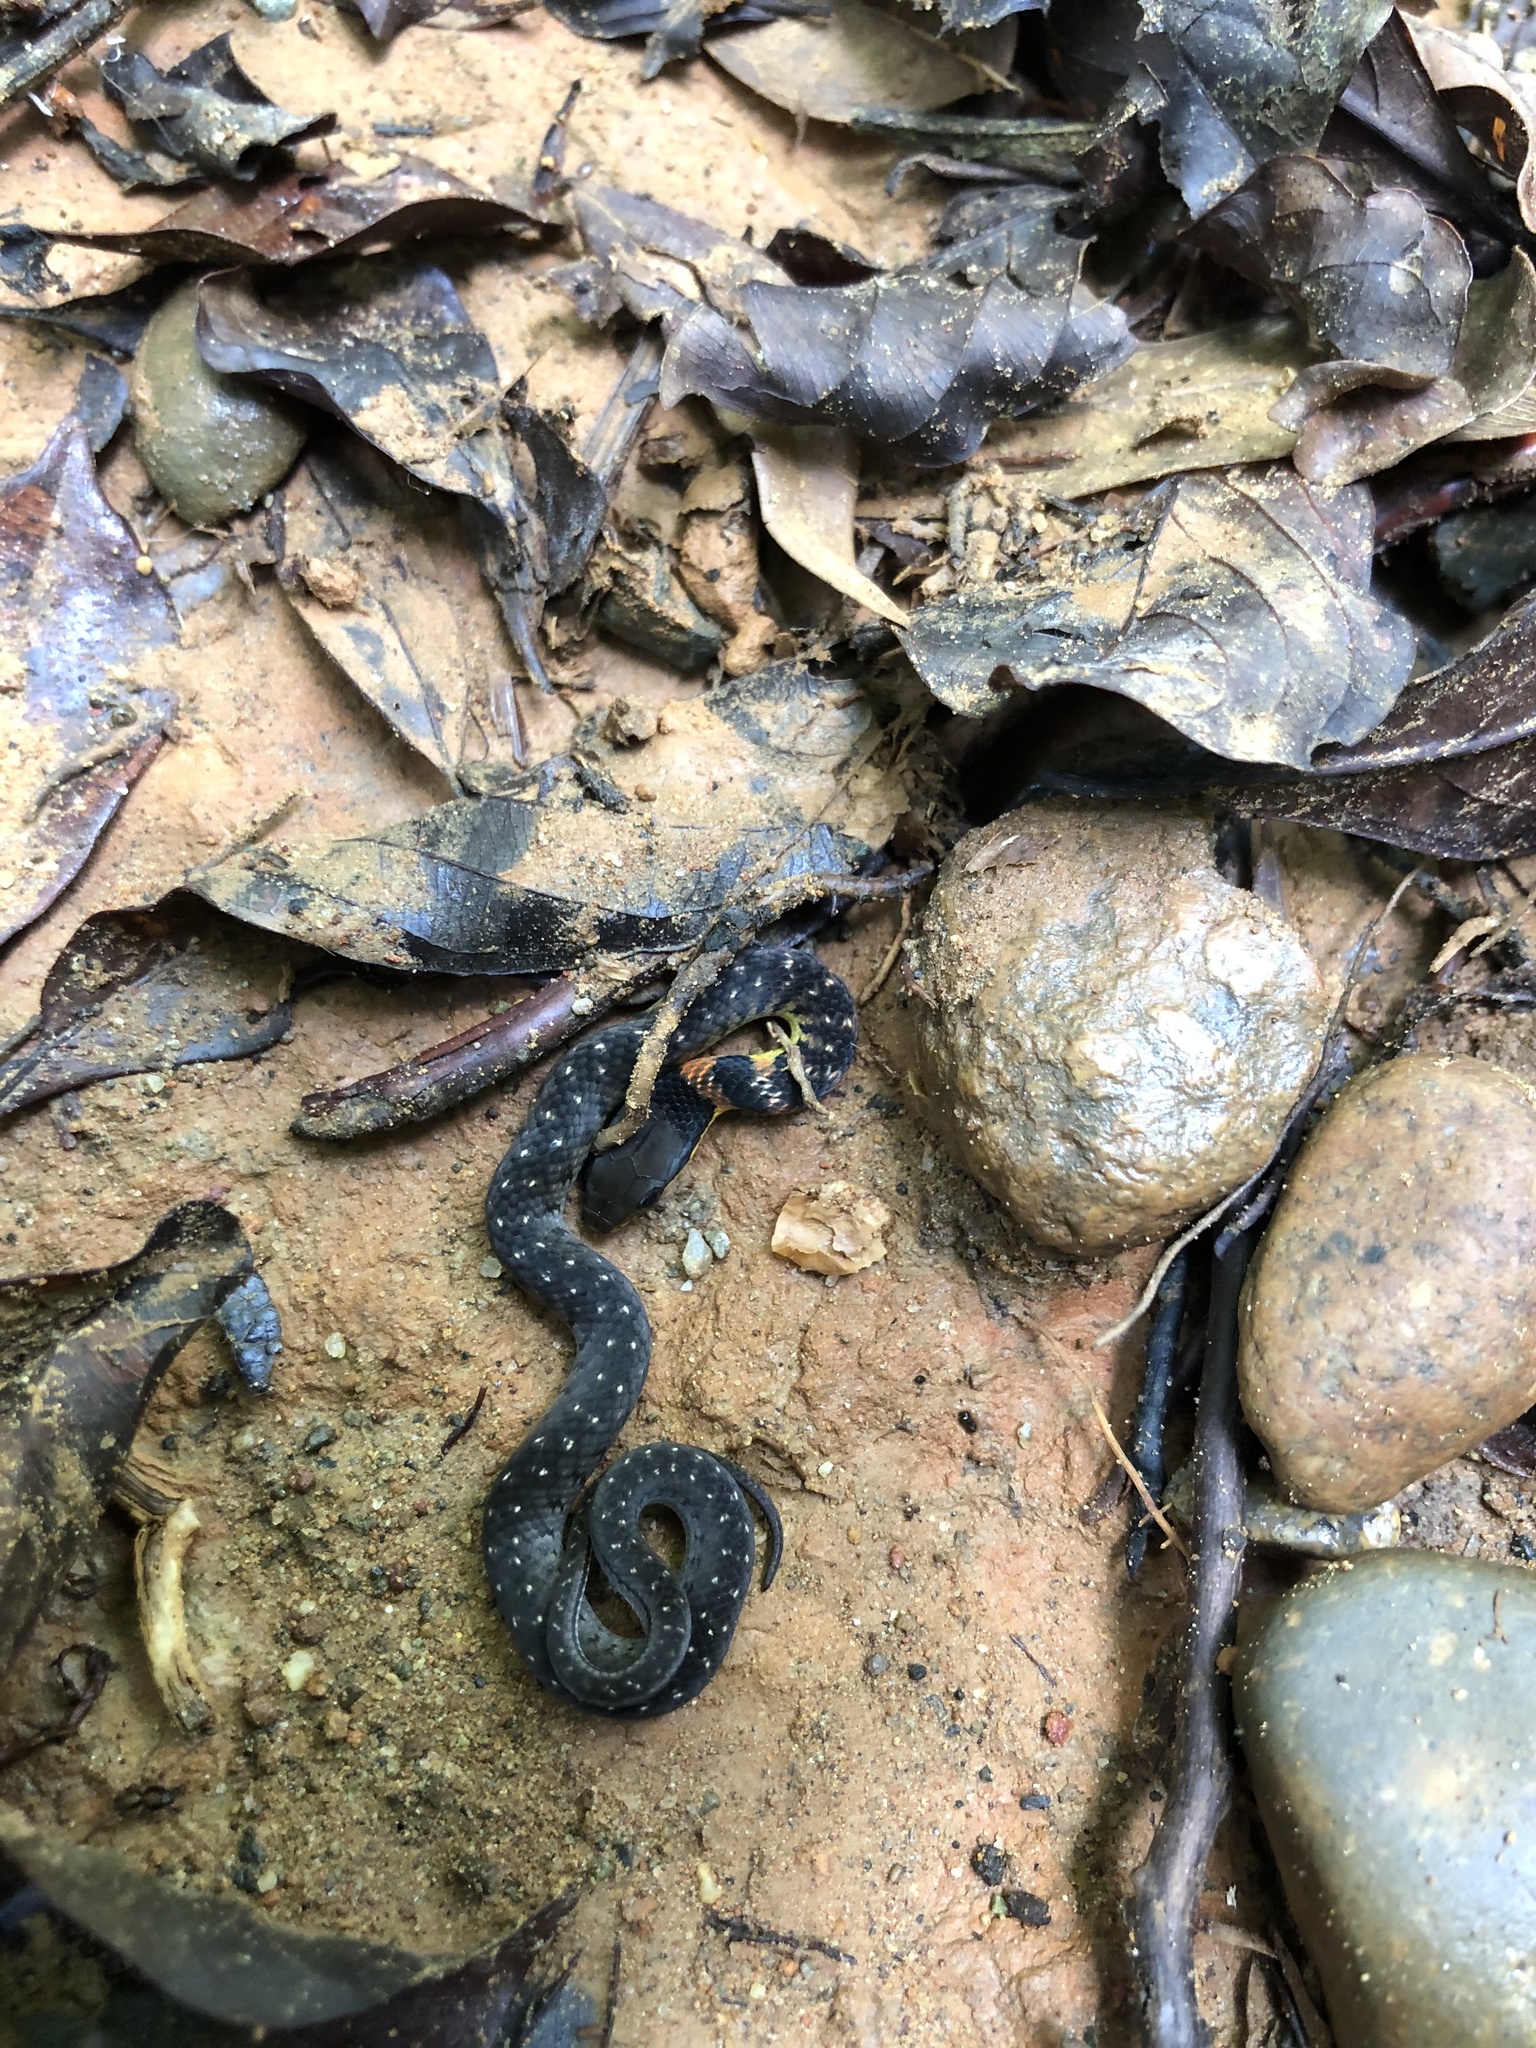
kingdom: Animalia
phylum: Chordata
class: Squamata
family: Colubridae
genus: Erythrolamprus
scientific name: Erythrolamprus epinephalus
